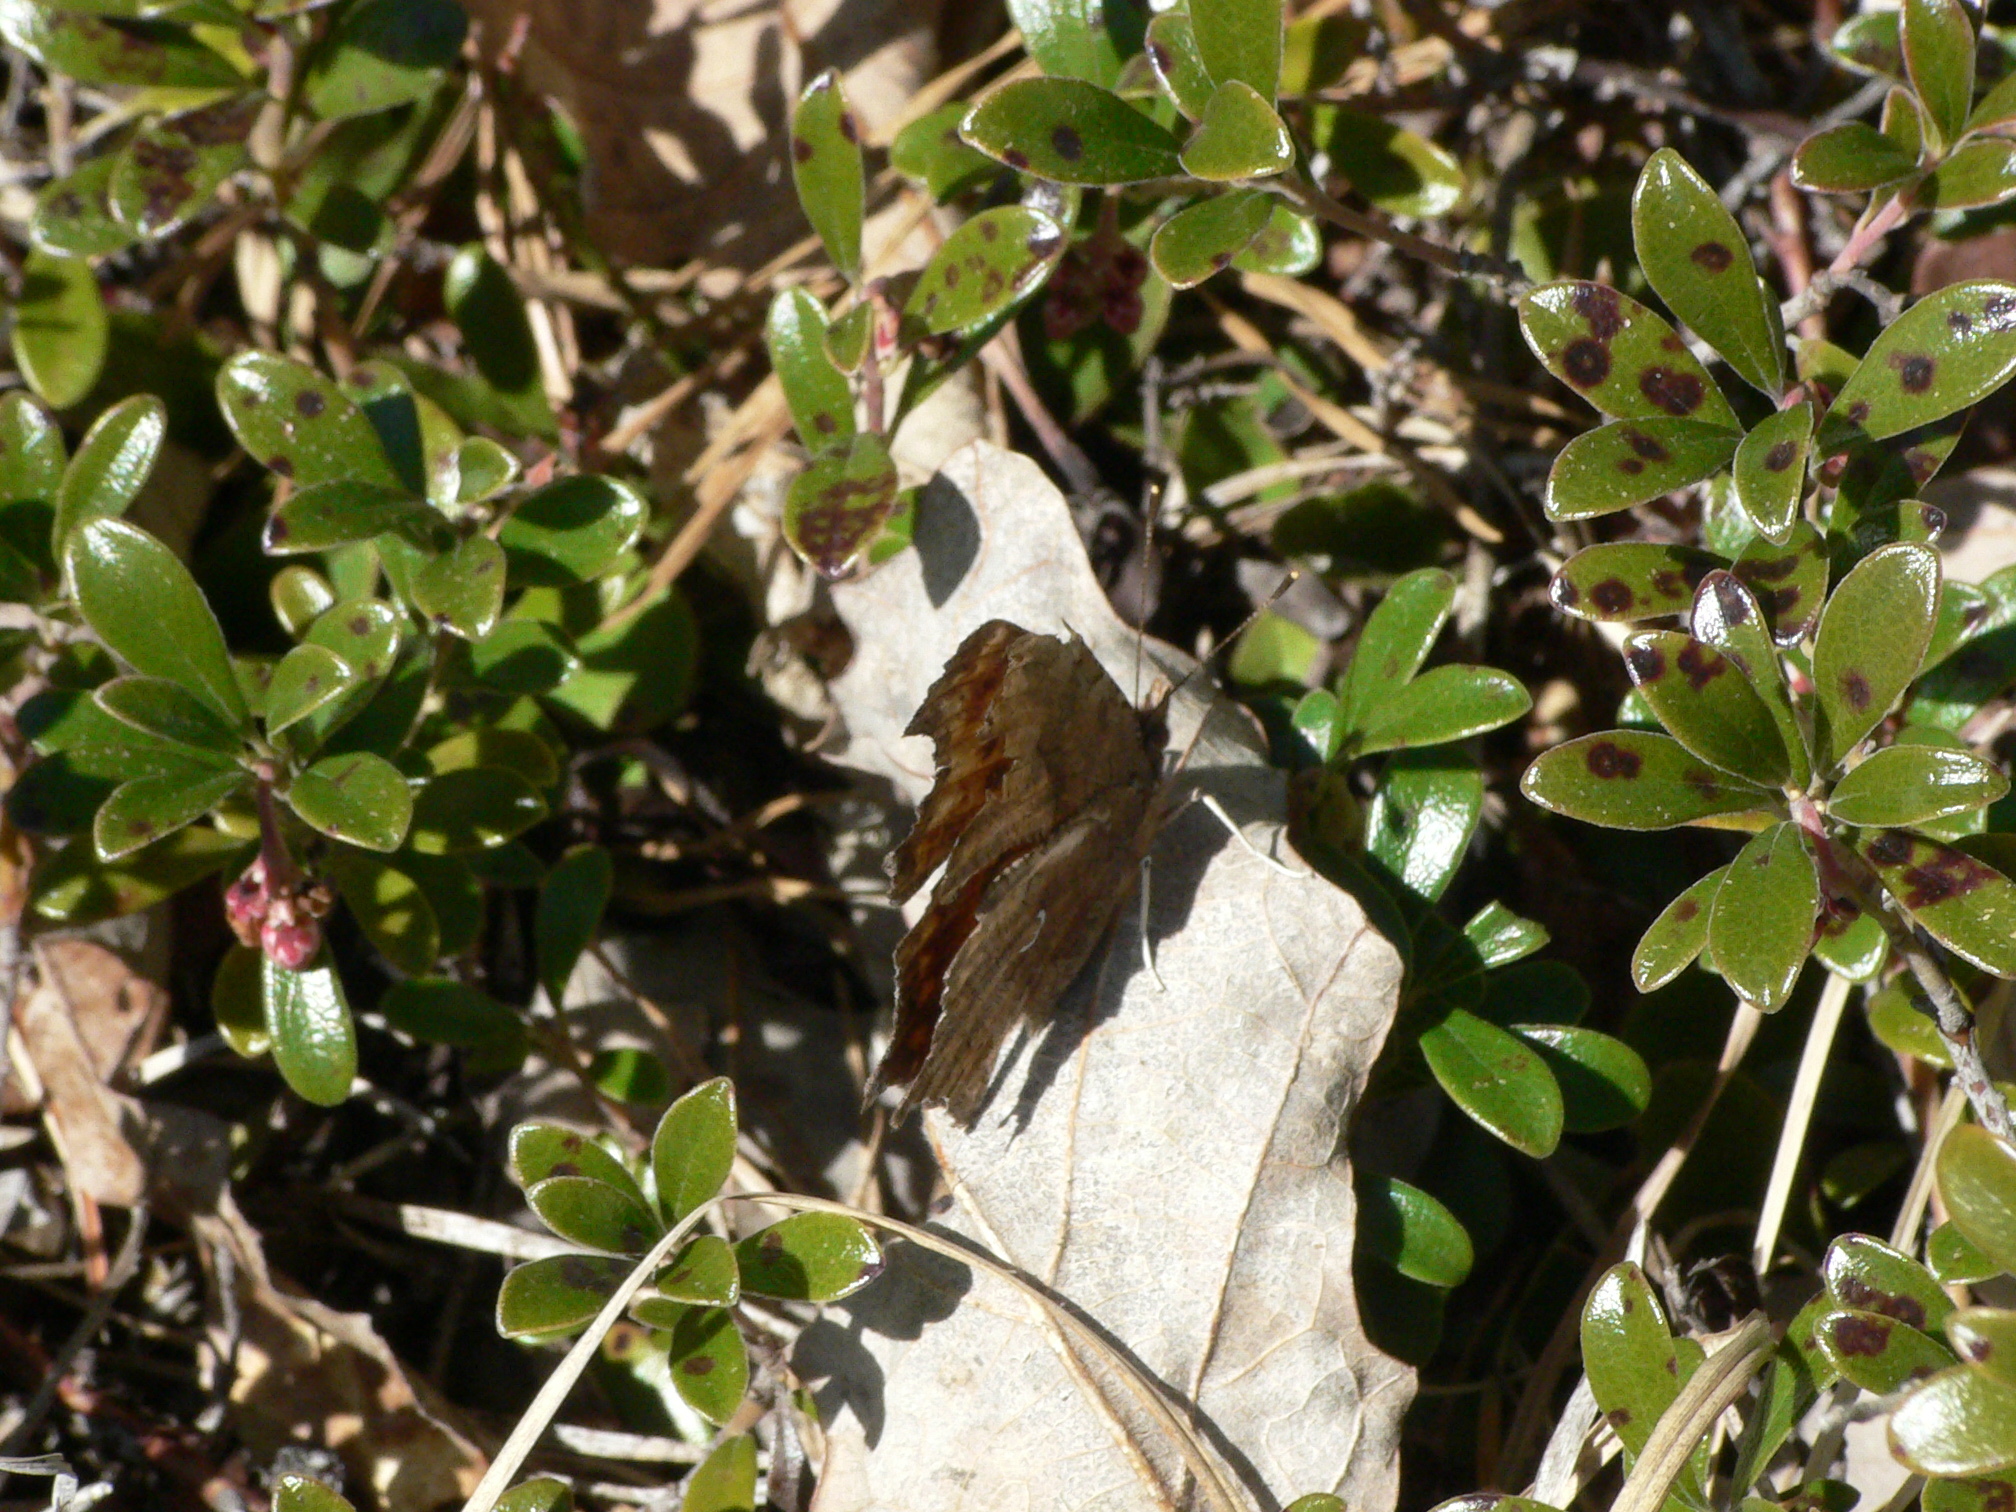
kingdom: Animalia
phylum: Arthropoda
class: Insecta
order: Lepidoptera
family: Nymphalidae
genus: Polygonia
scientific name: Polygonia comma
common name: Eastern comma
